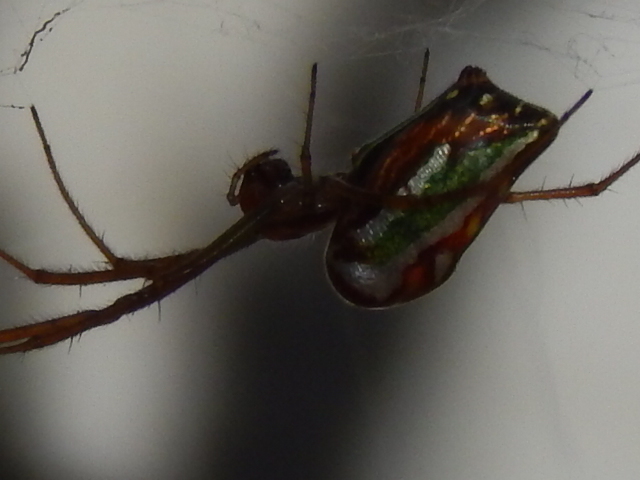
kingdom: Animalia
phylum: Arthropoda
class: Arachnida
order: Araneae
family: Tetragnathidae
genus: Leucauge
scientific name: Leucauge festiva
